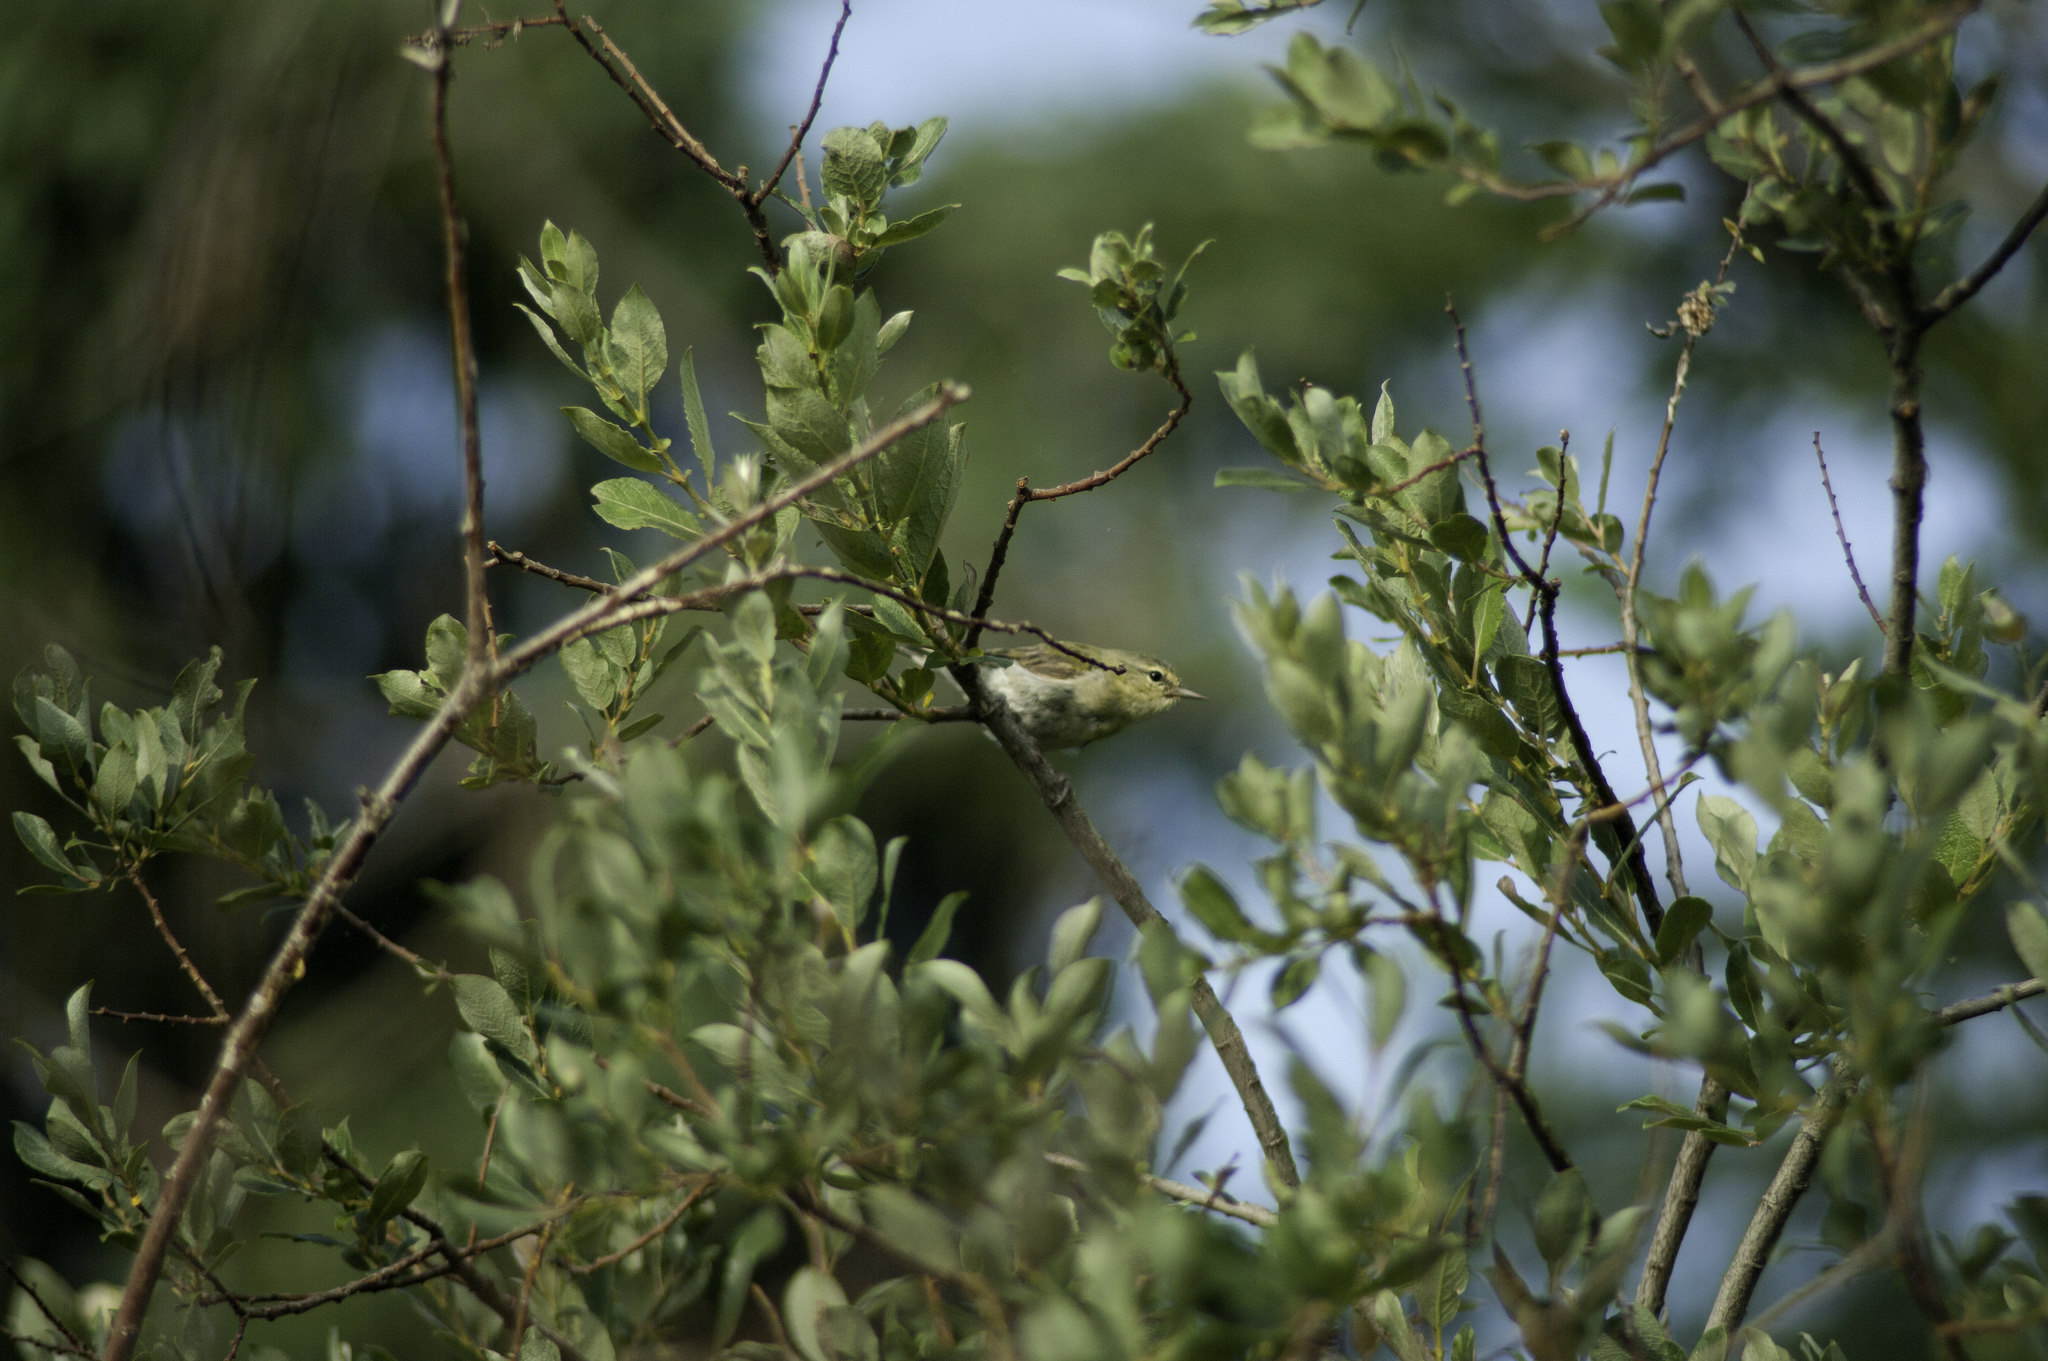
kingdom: Animalia
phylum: Chordata
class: Aves
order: Passeriformes
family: Parulidae
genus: Leiothlypis
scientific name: Leiothlypis peregrina
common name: Tennessee warbler
